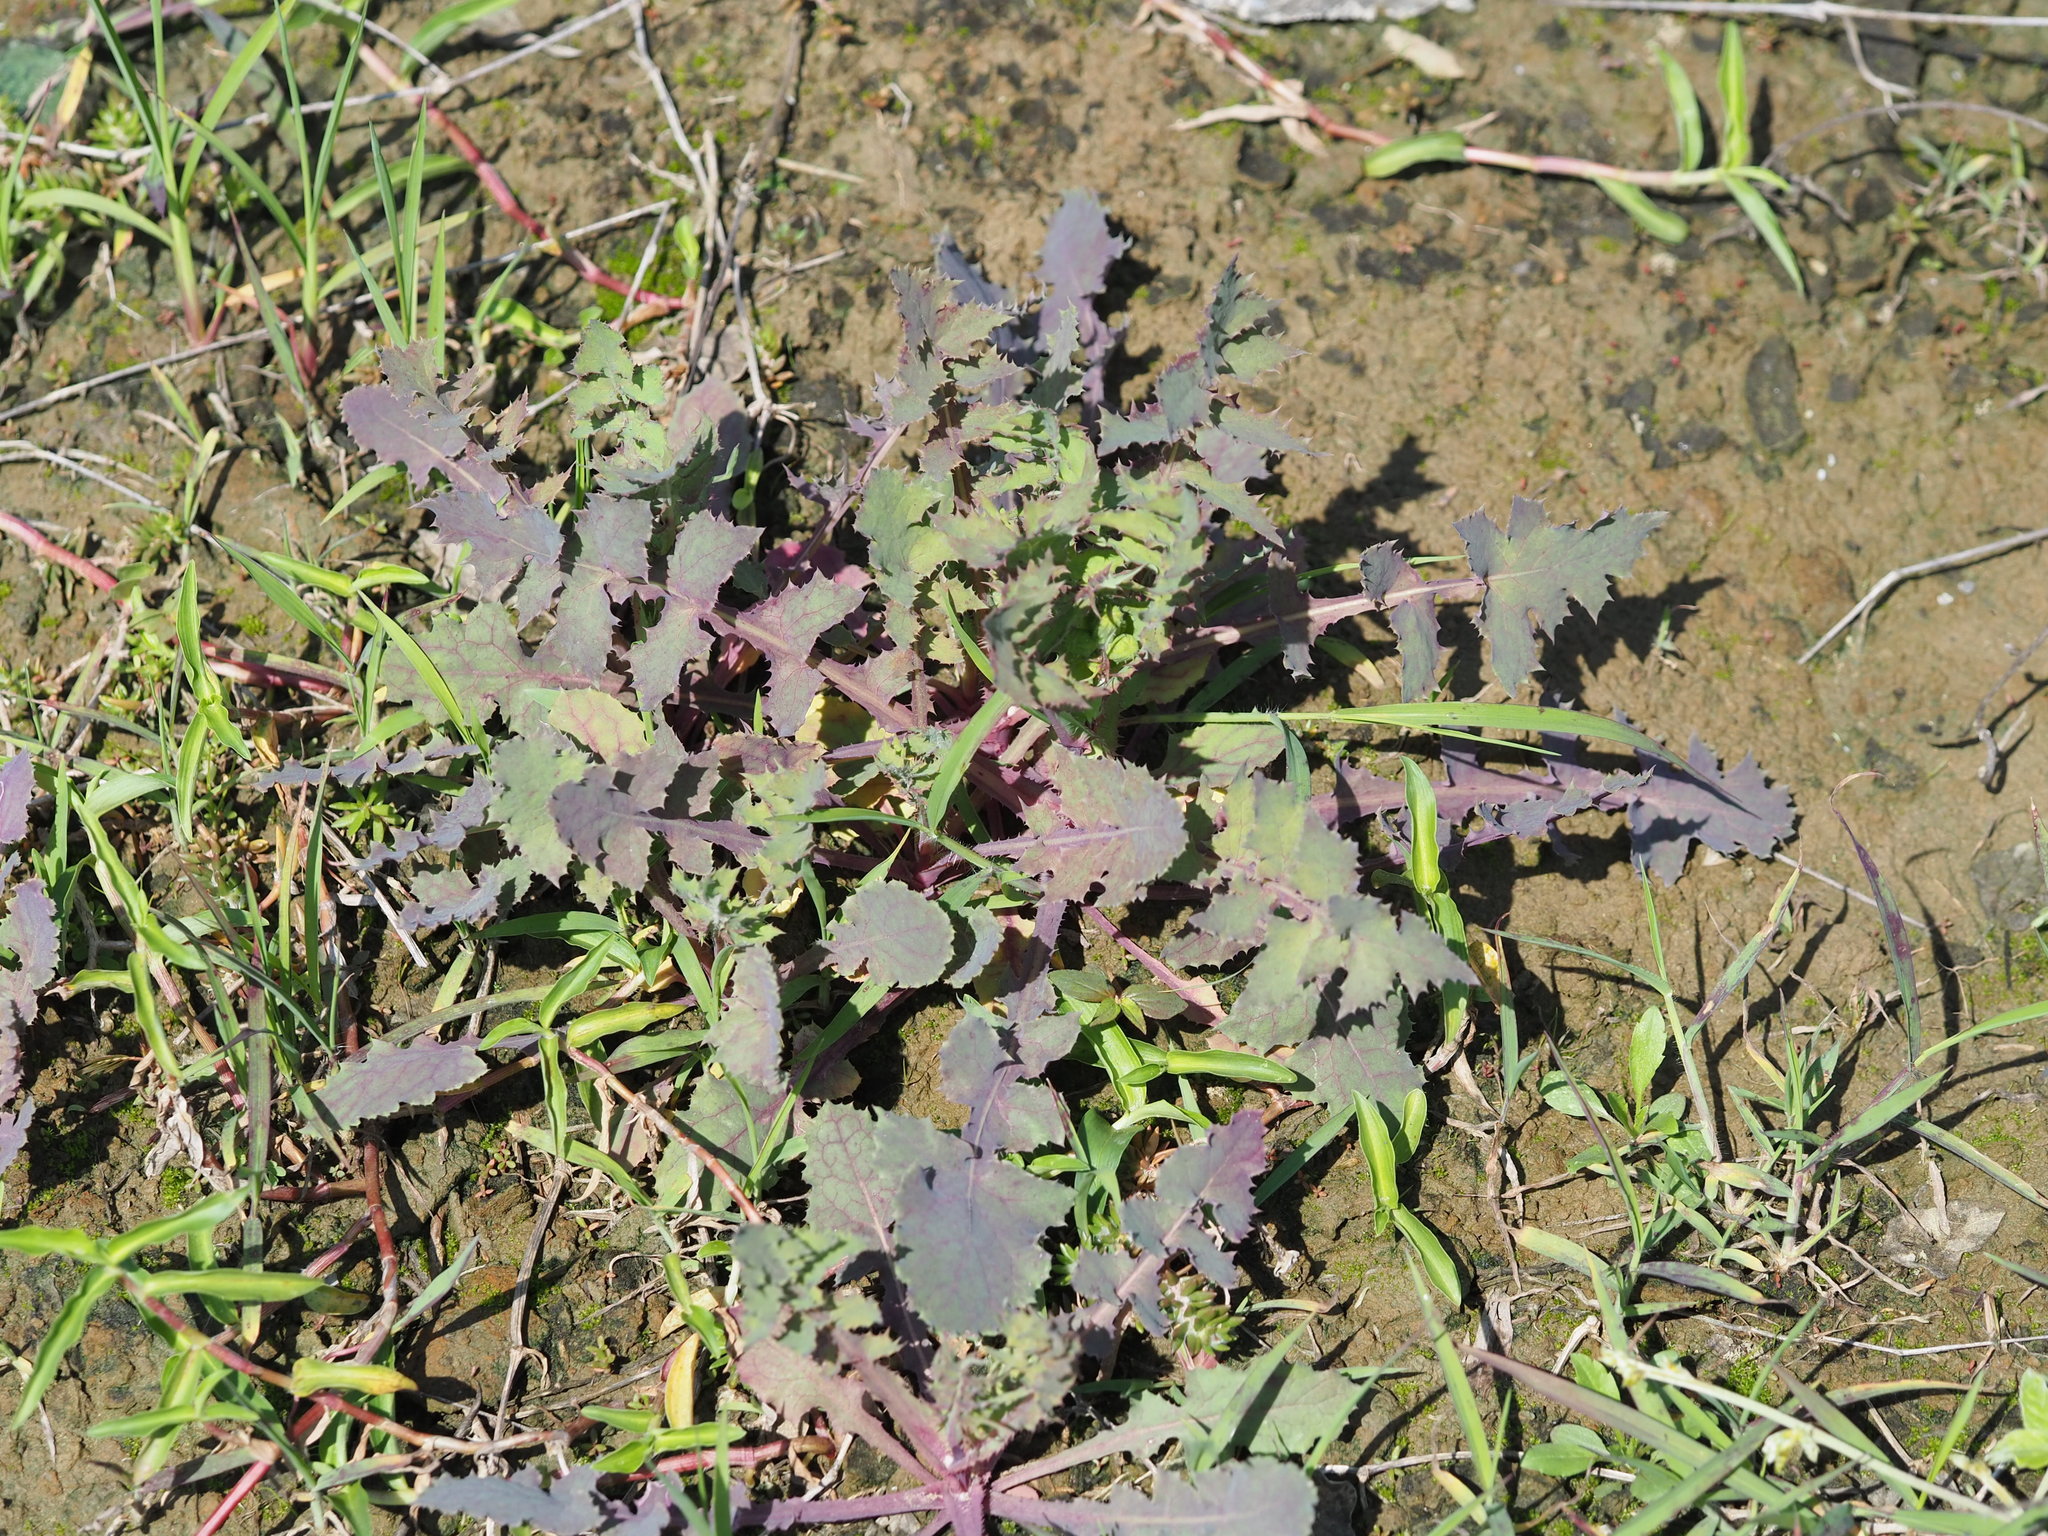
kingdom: Plantae
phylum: Tracheophyta
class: Magnoliopsida
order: Asterales
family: Asteraceae
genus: Sonchus
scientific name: Sonchus oleraceus
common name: Common sowthistle
